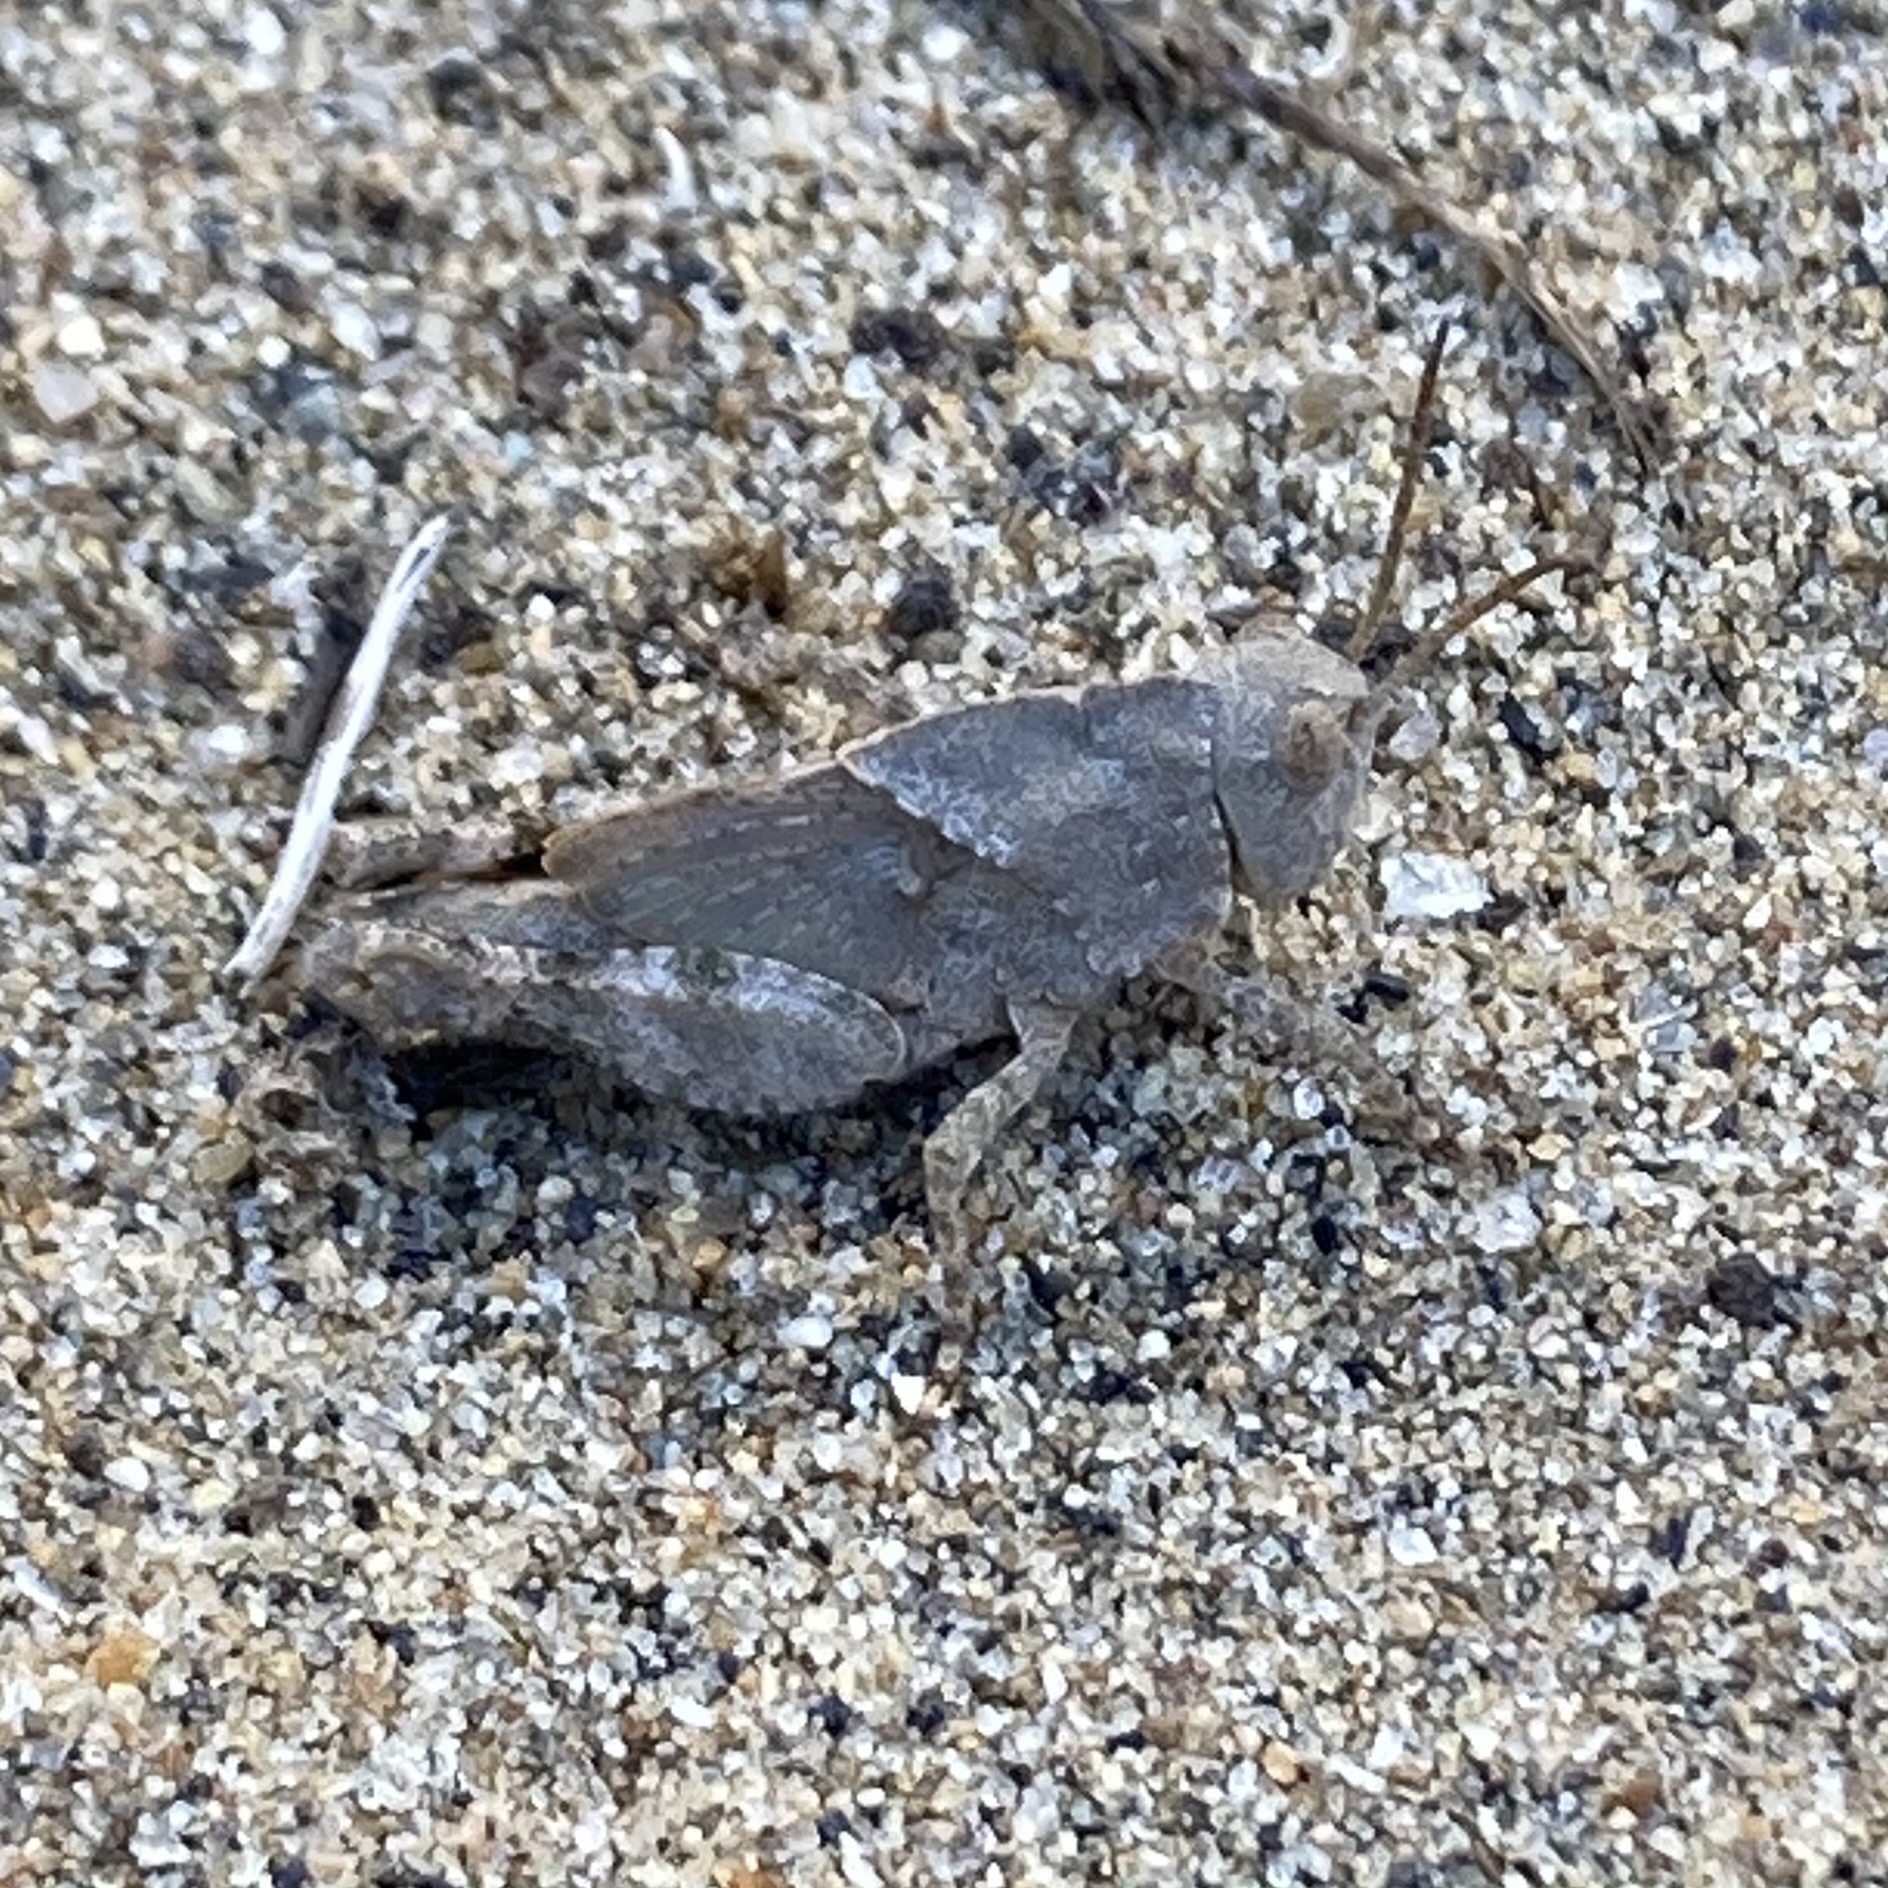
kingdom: Animalia
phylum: Arthropoda
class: Insecta
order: Orthoptera
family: Acrididae
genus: Dissosteira
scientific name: Dissosteira carolina
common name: Carolina grasshopper
